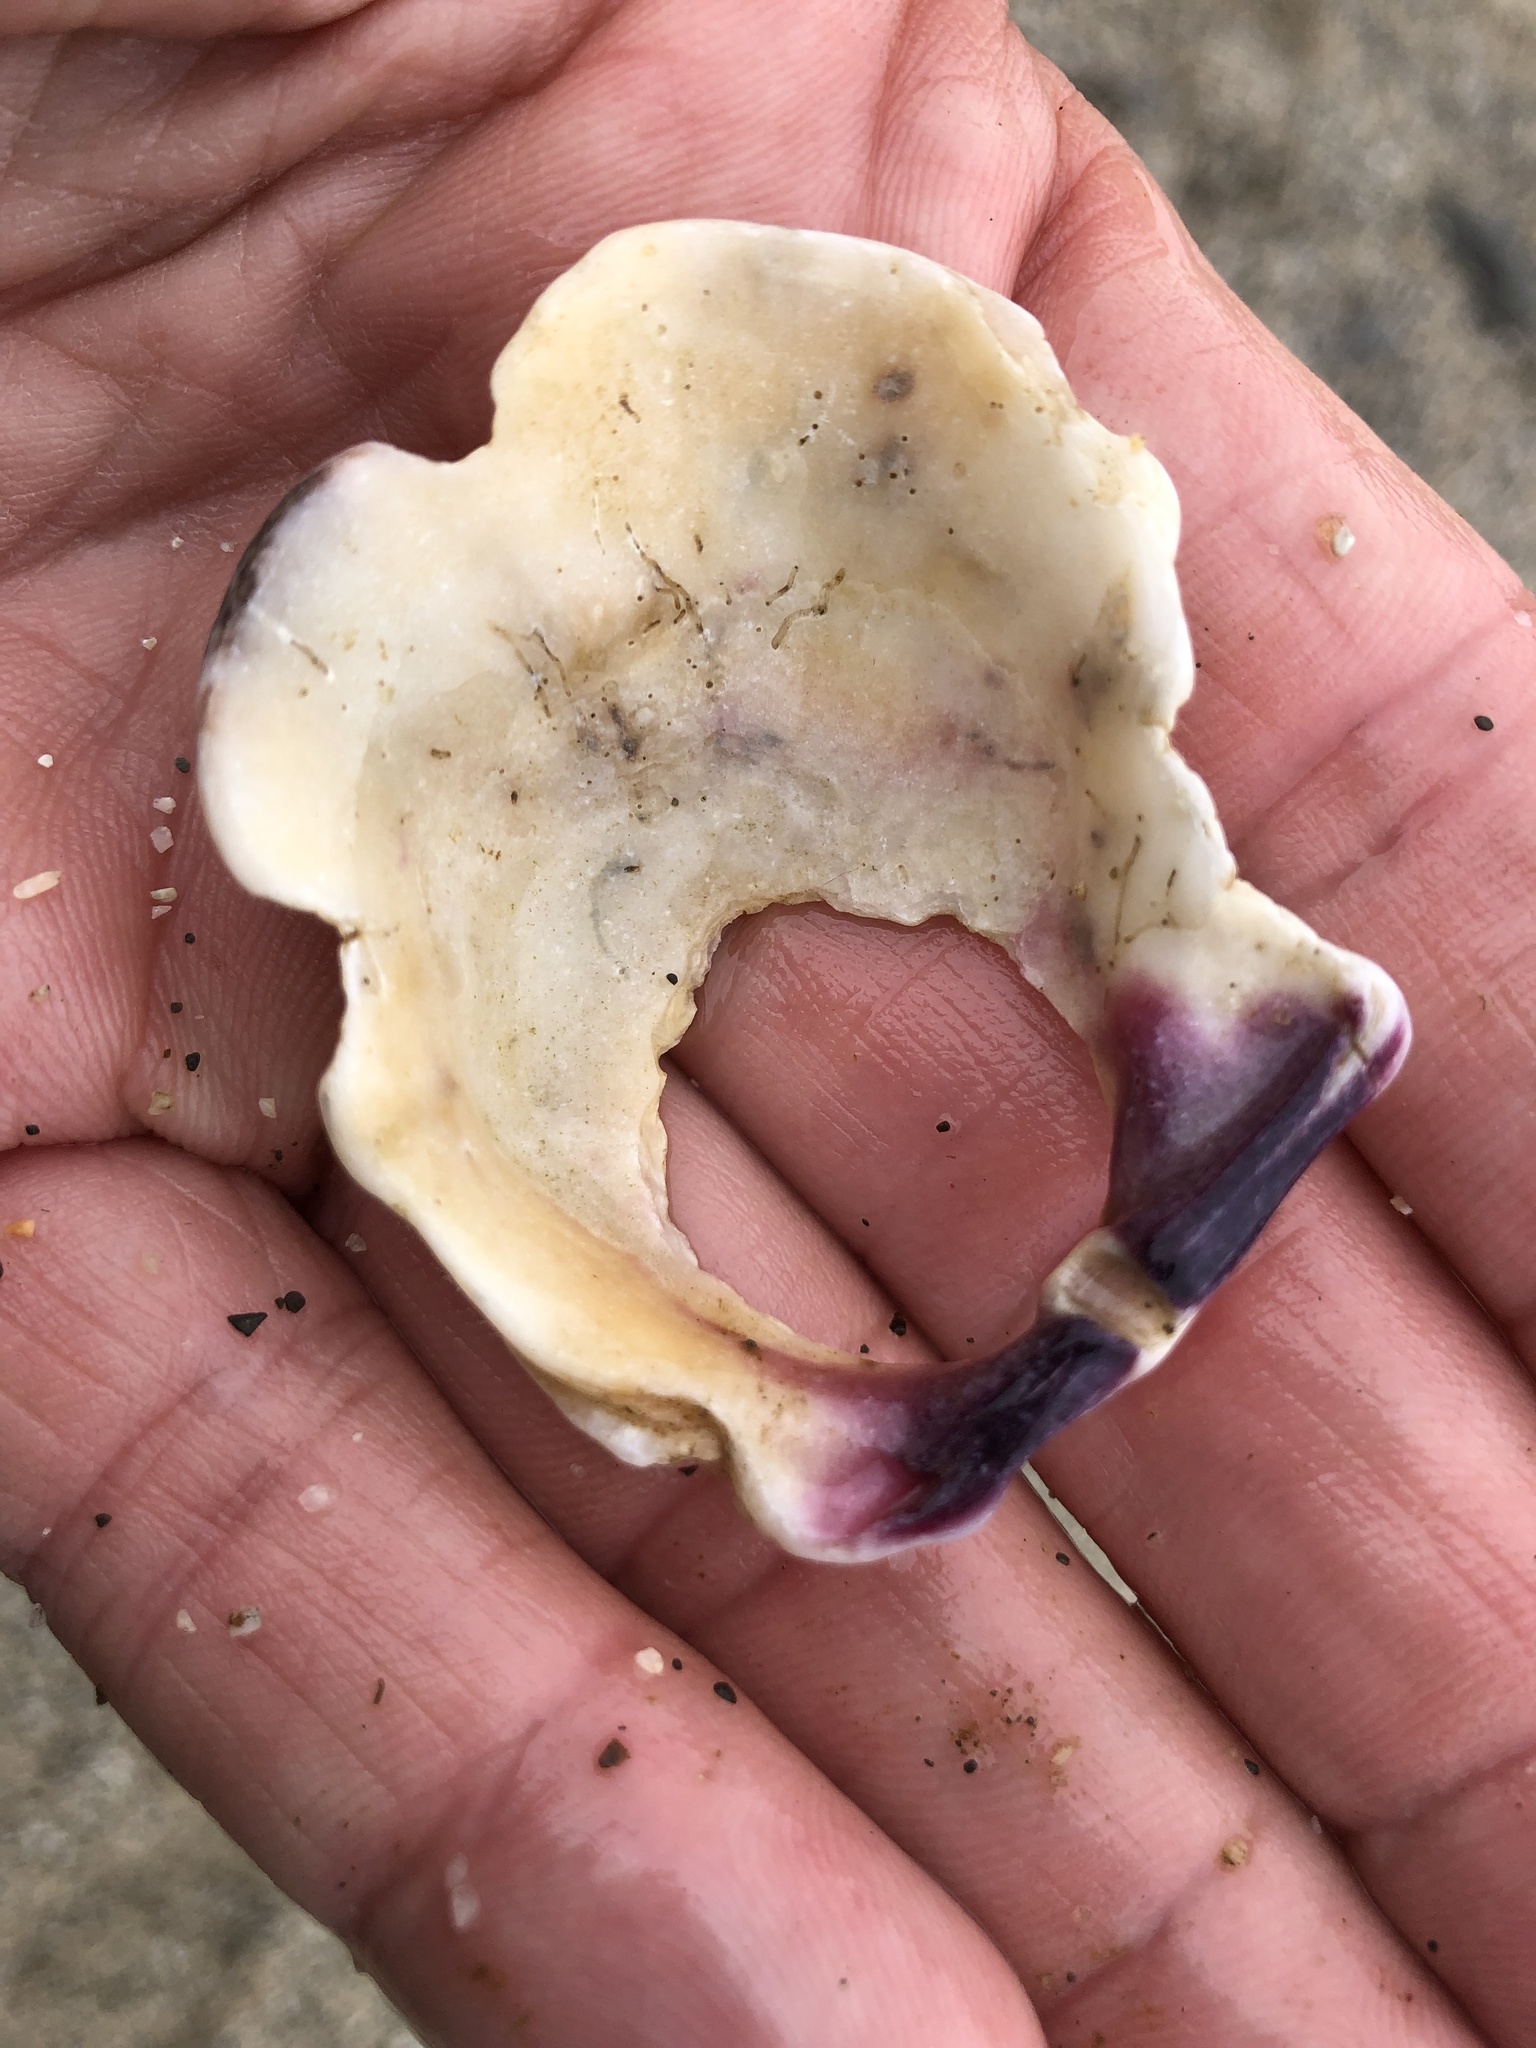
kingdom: Animalia
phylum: Mollusca
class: Bivalvia
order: Pectinida
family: Pectinidae
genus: Crassadoma
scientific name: Crassadoma gigantea
